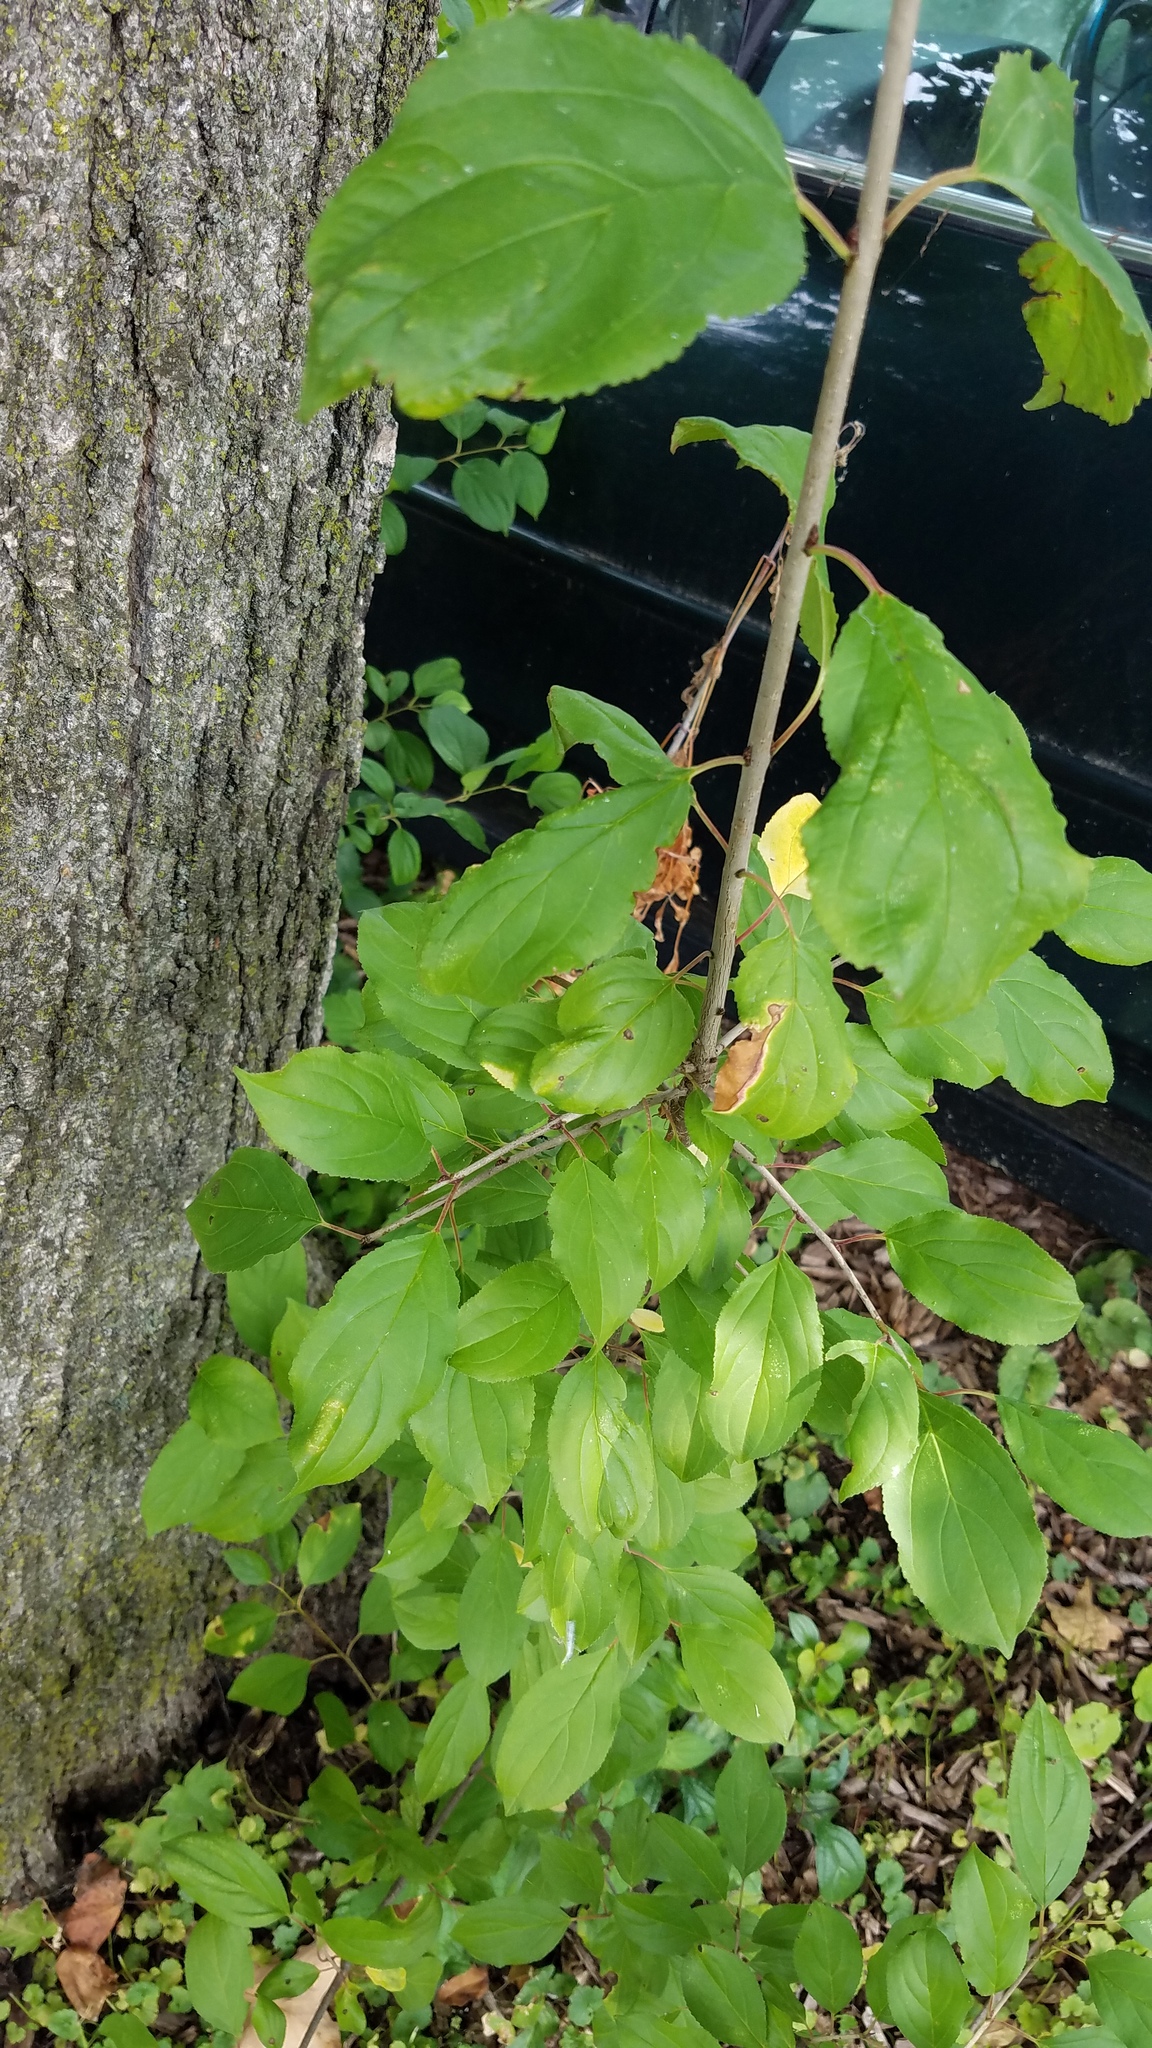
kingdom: Plantae
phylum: Tracheophyta
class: Magnoliopsida
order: Rosales
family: Rhamnaceae
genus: Rhamnus
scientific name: Rhamnus cathartica
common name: Common buckthorn
